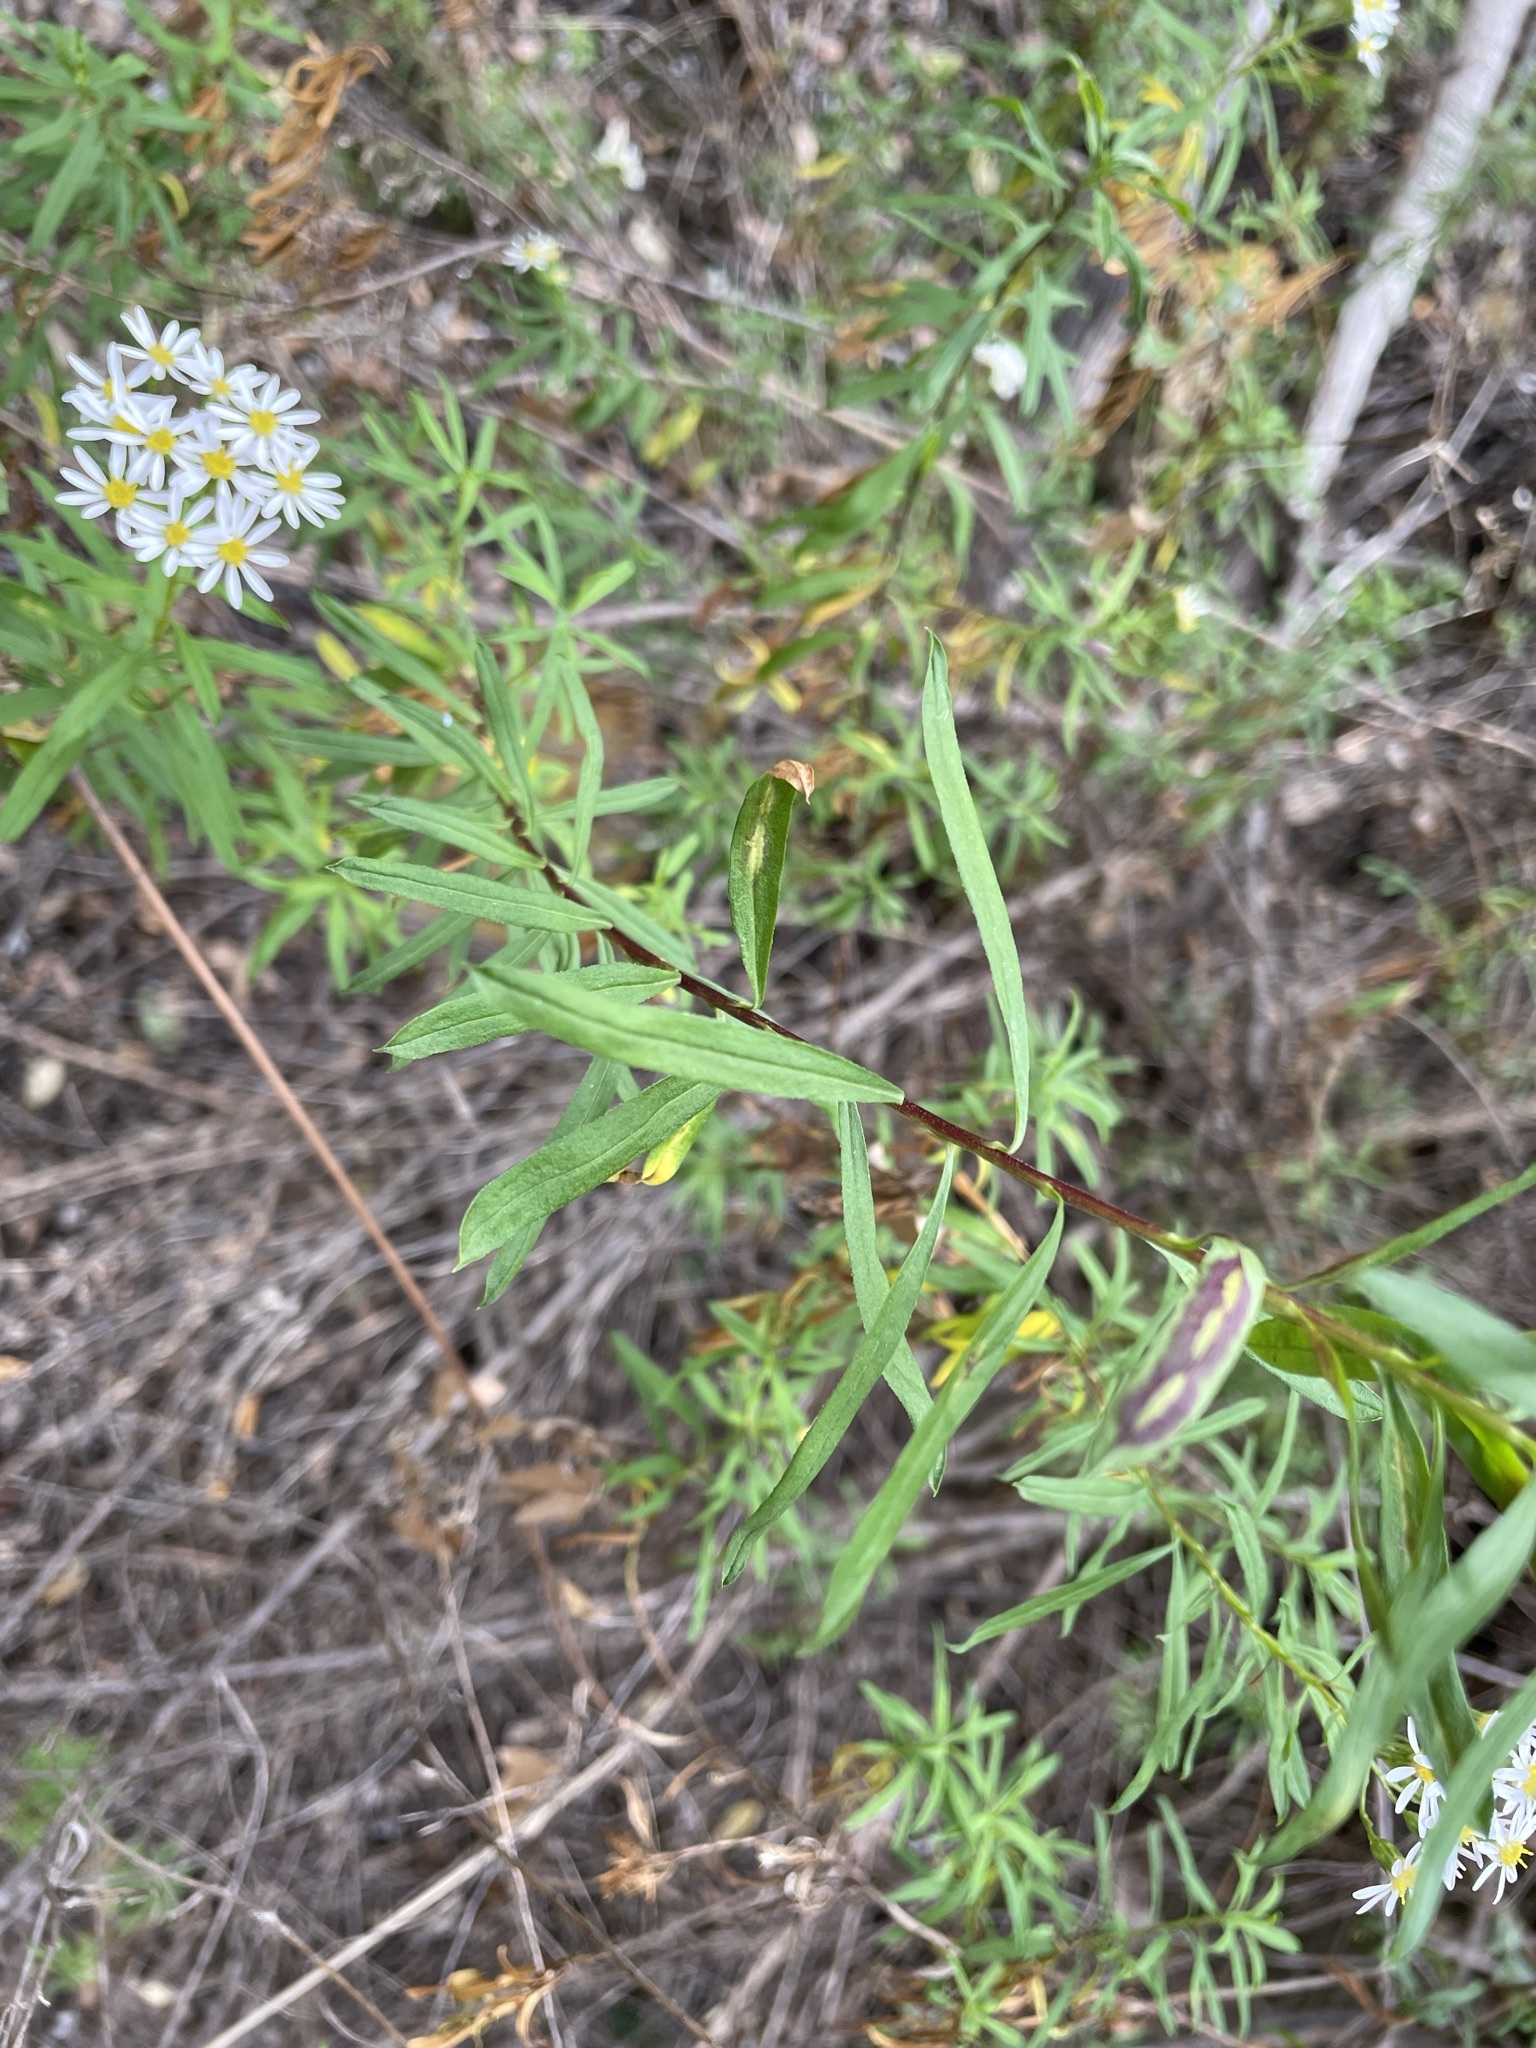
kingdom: Plantae
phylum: Tracheophyta
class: Magnoliopsida
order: Asterales
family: Asteraceae
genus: Felicia
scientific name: Felicia douglasii
